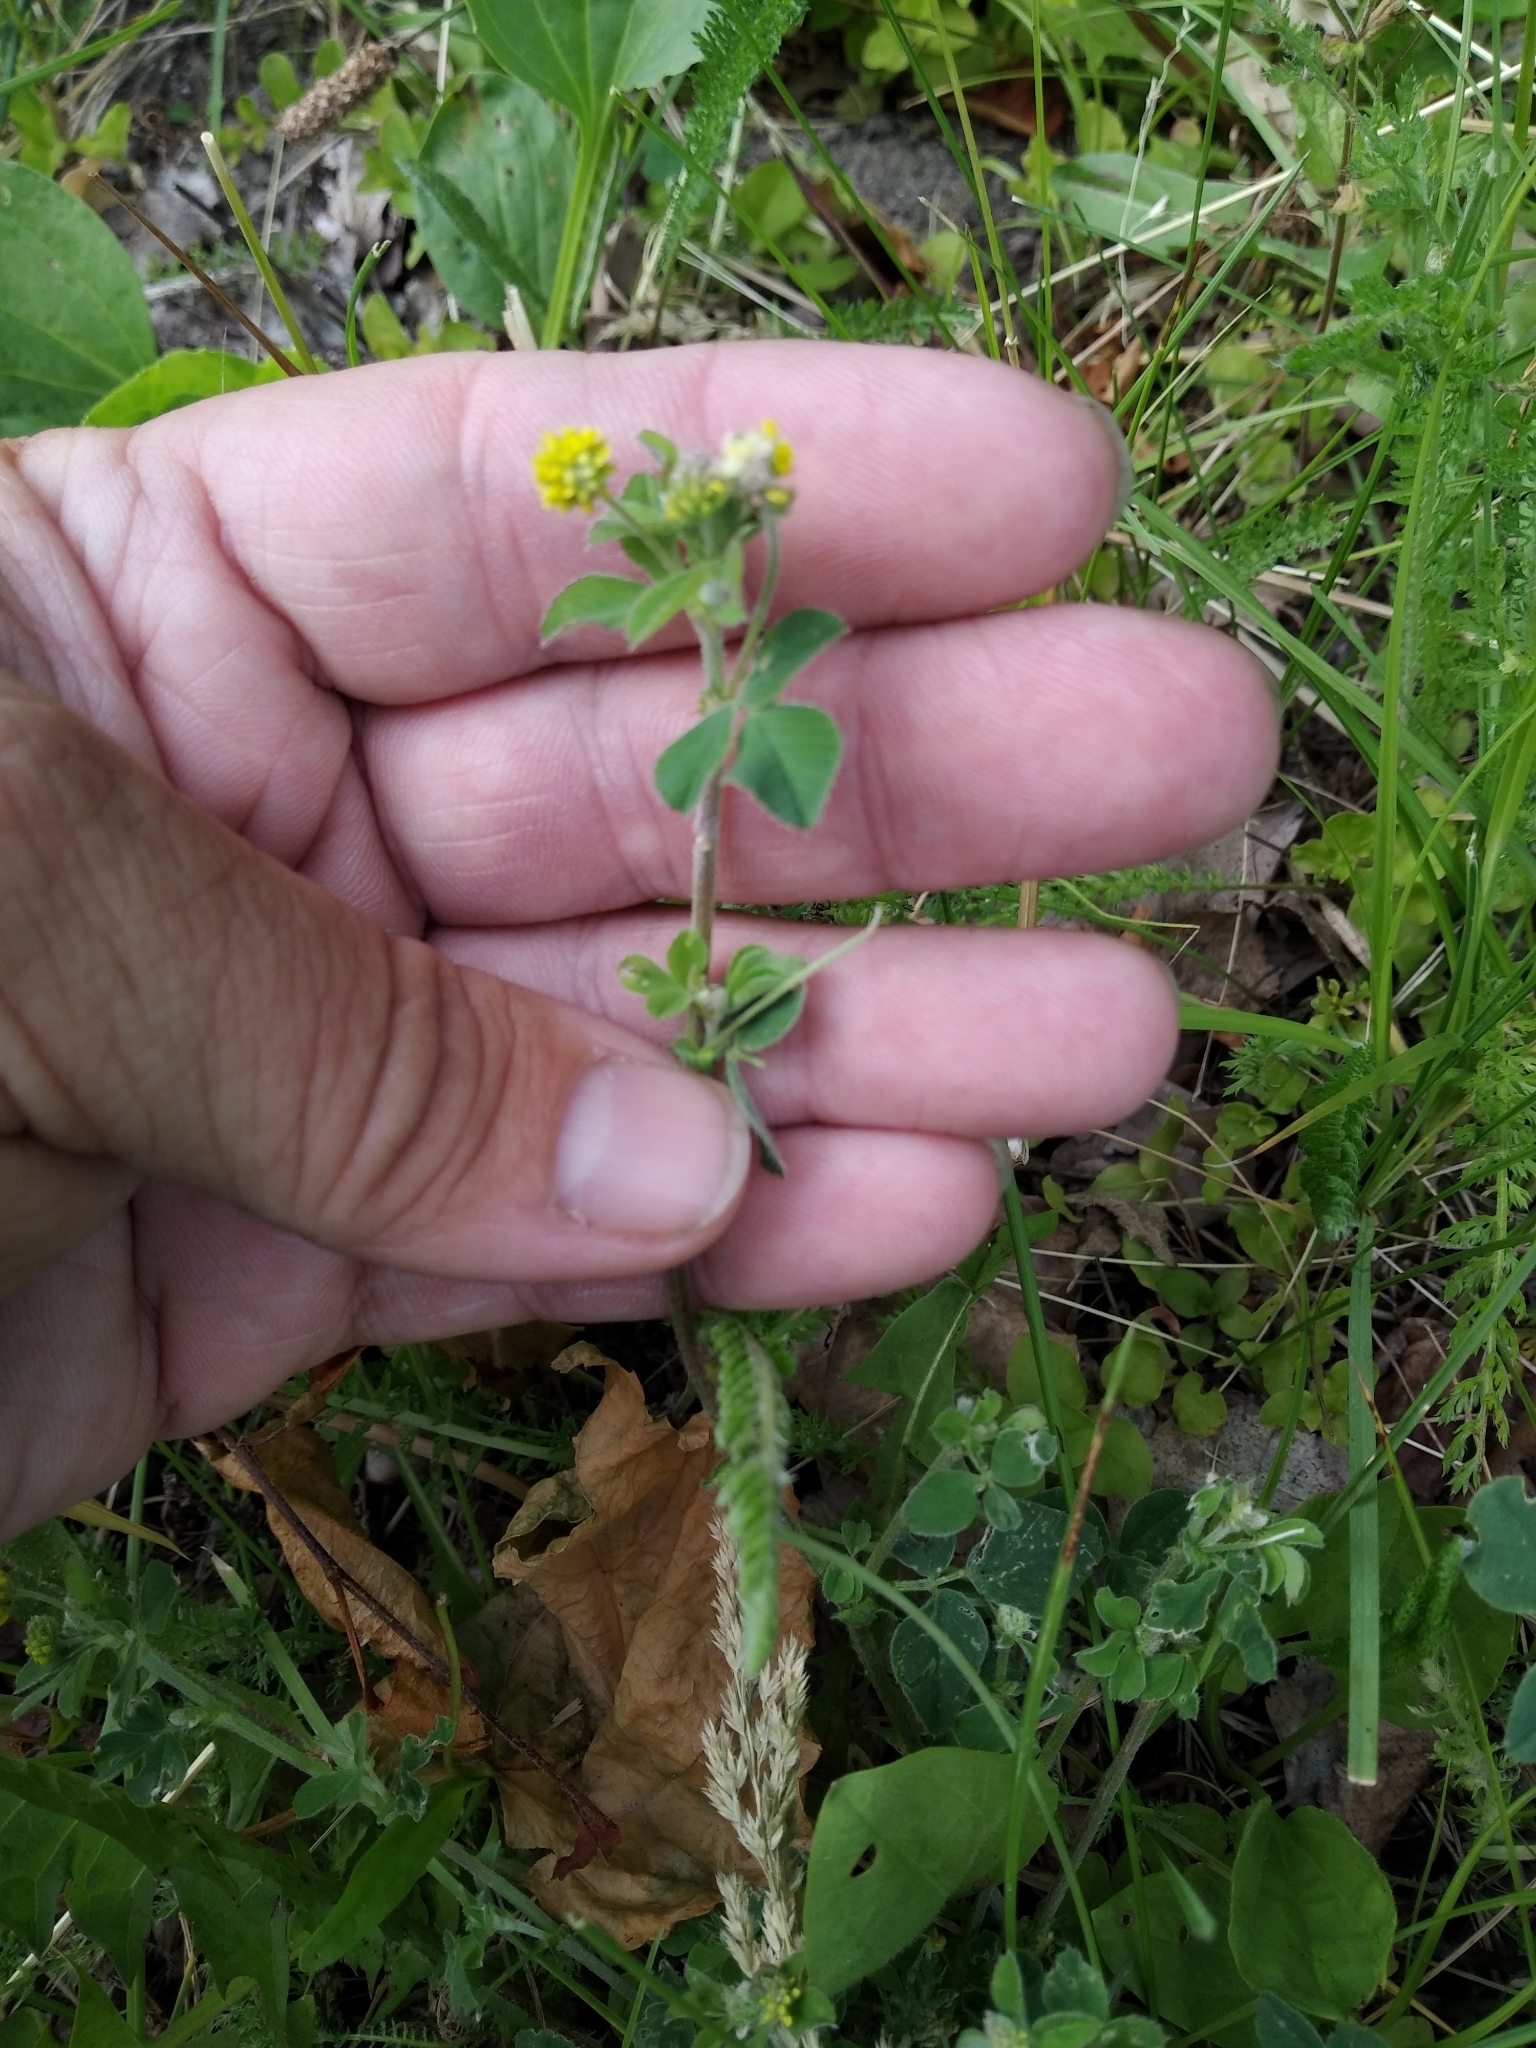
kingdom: Plantae
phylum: Tracheophyta
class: Magnoliopsida
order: Fabales
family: Fabaceae
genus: Medicago
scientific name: Medicago lupulina
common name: Black medick
